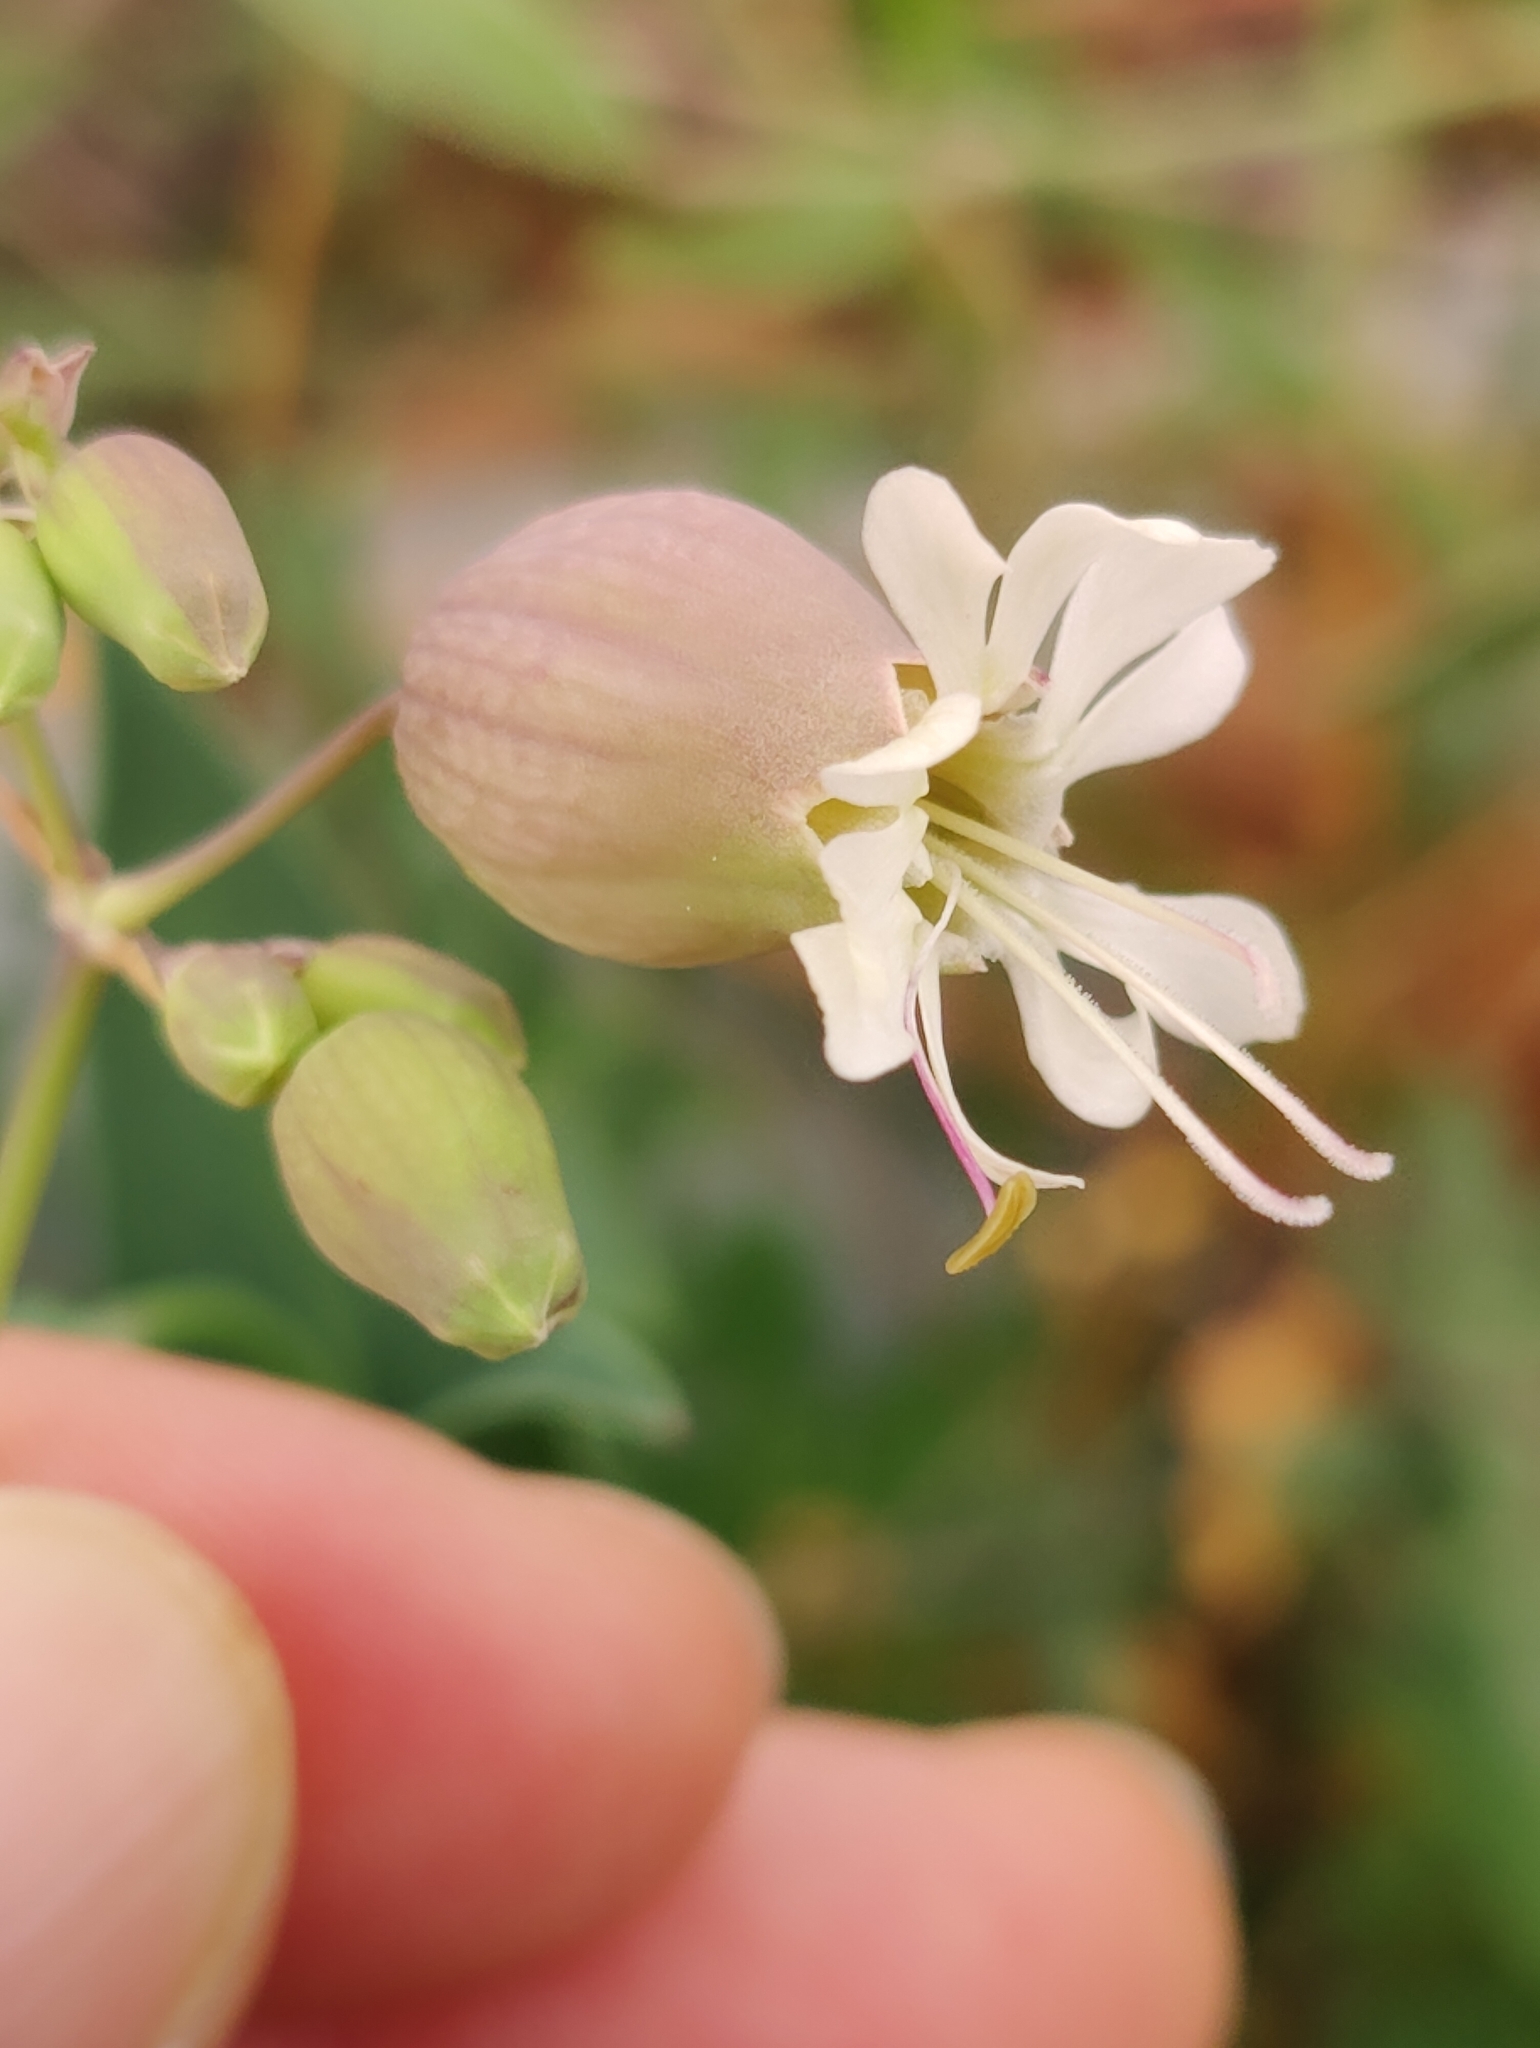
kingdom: Plantae
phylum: Tracheophyta
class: Magnoliopsida
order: Caryophyllales
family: Caryophyllaceae
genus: Silene
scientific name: Silene vulgaris
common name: Bladder campion
